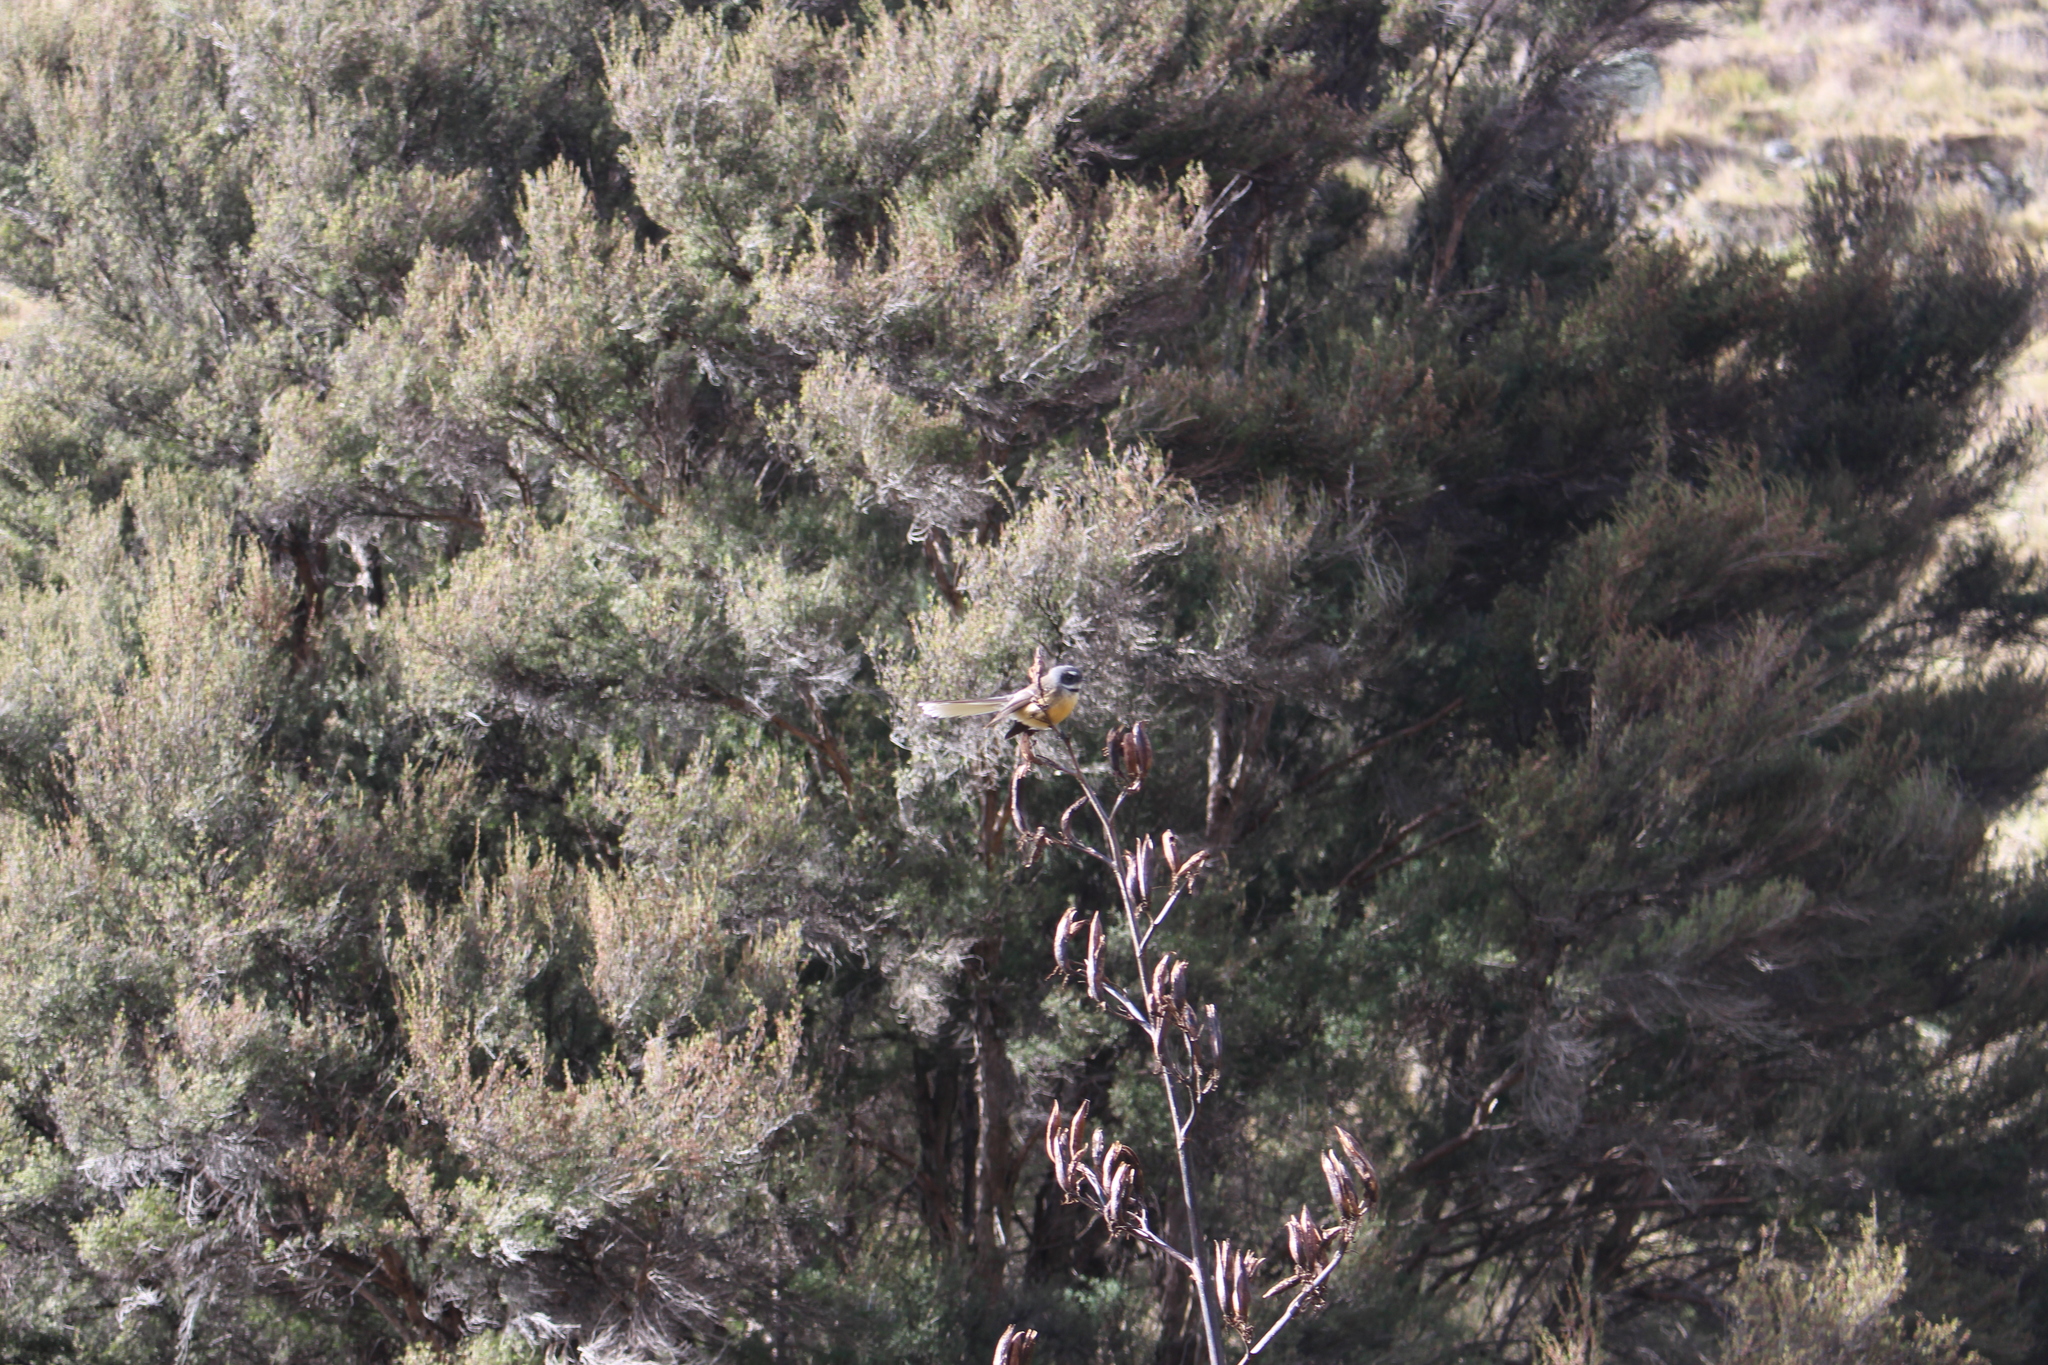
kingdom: Animalia
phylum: Chordata
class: Aves
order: Passeriformes
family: Rhipiduridae
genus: Rhipidura
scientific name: Rhipidura fuliginosa
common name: New zealand fantail
